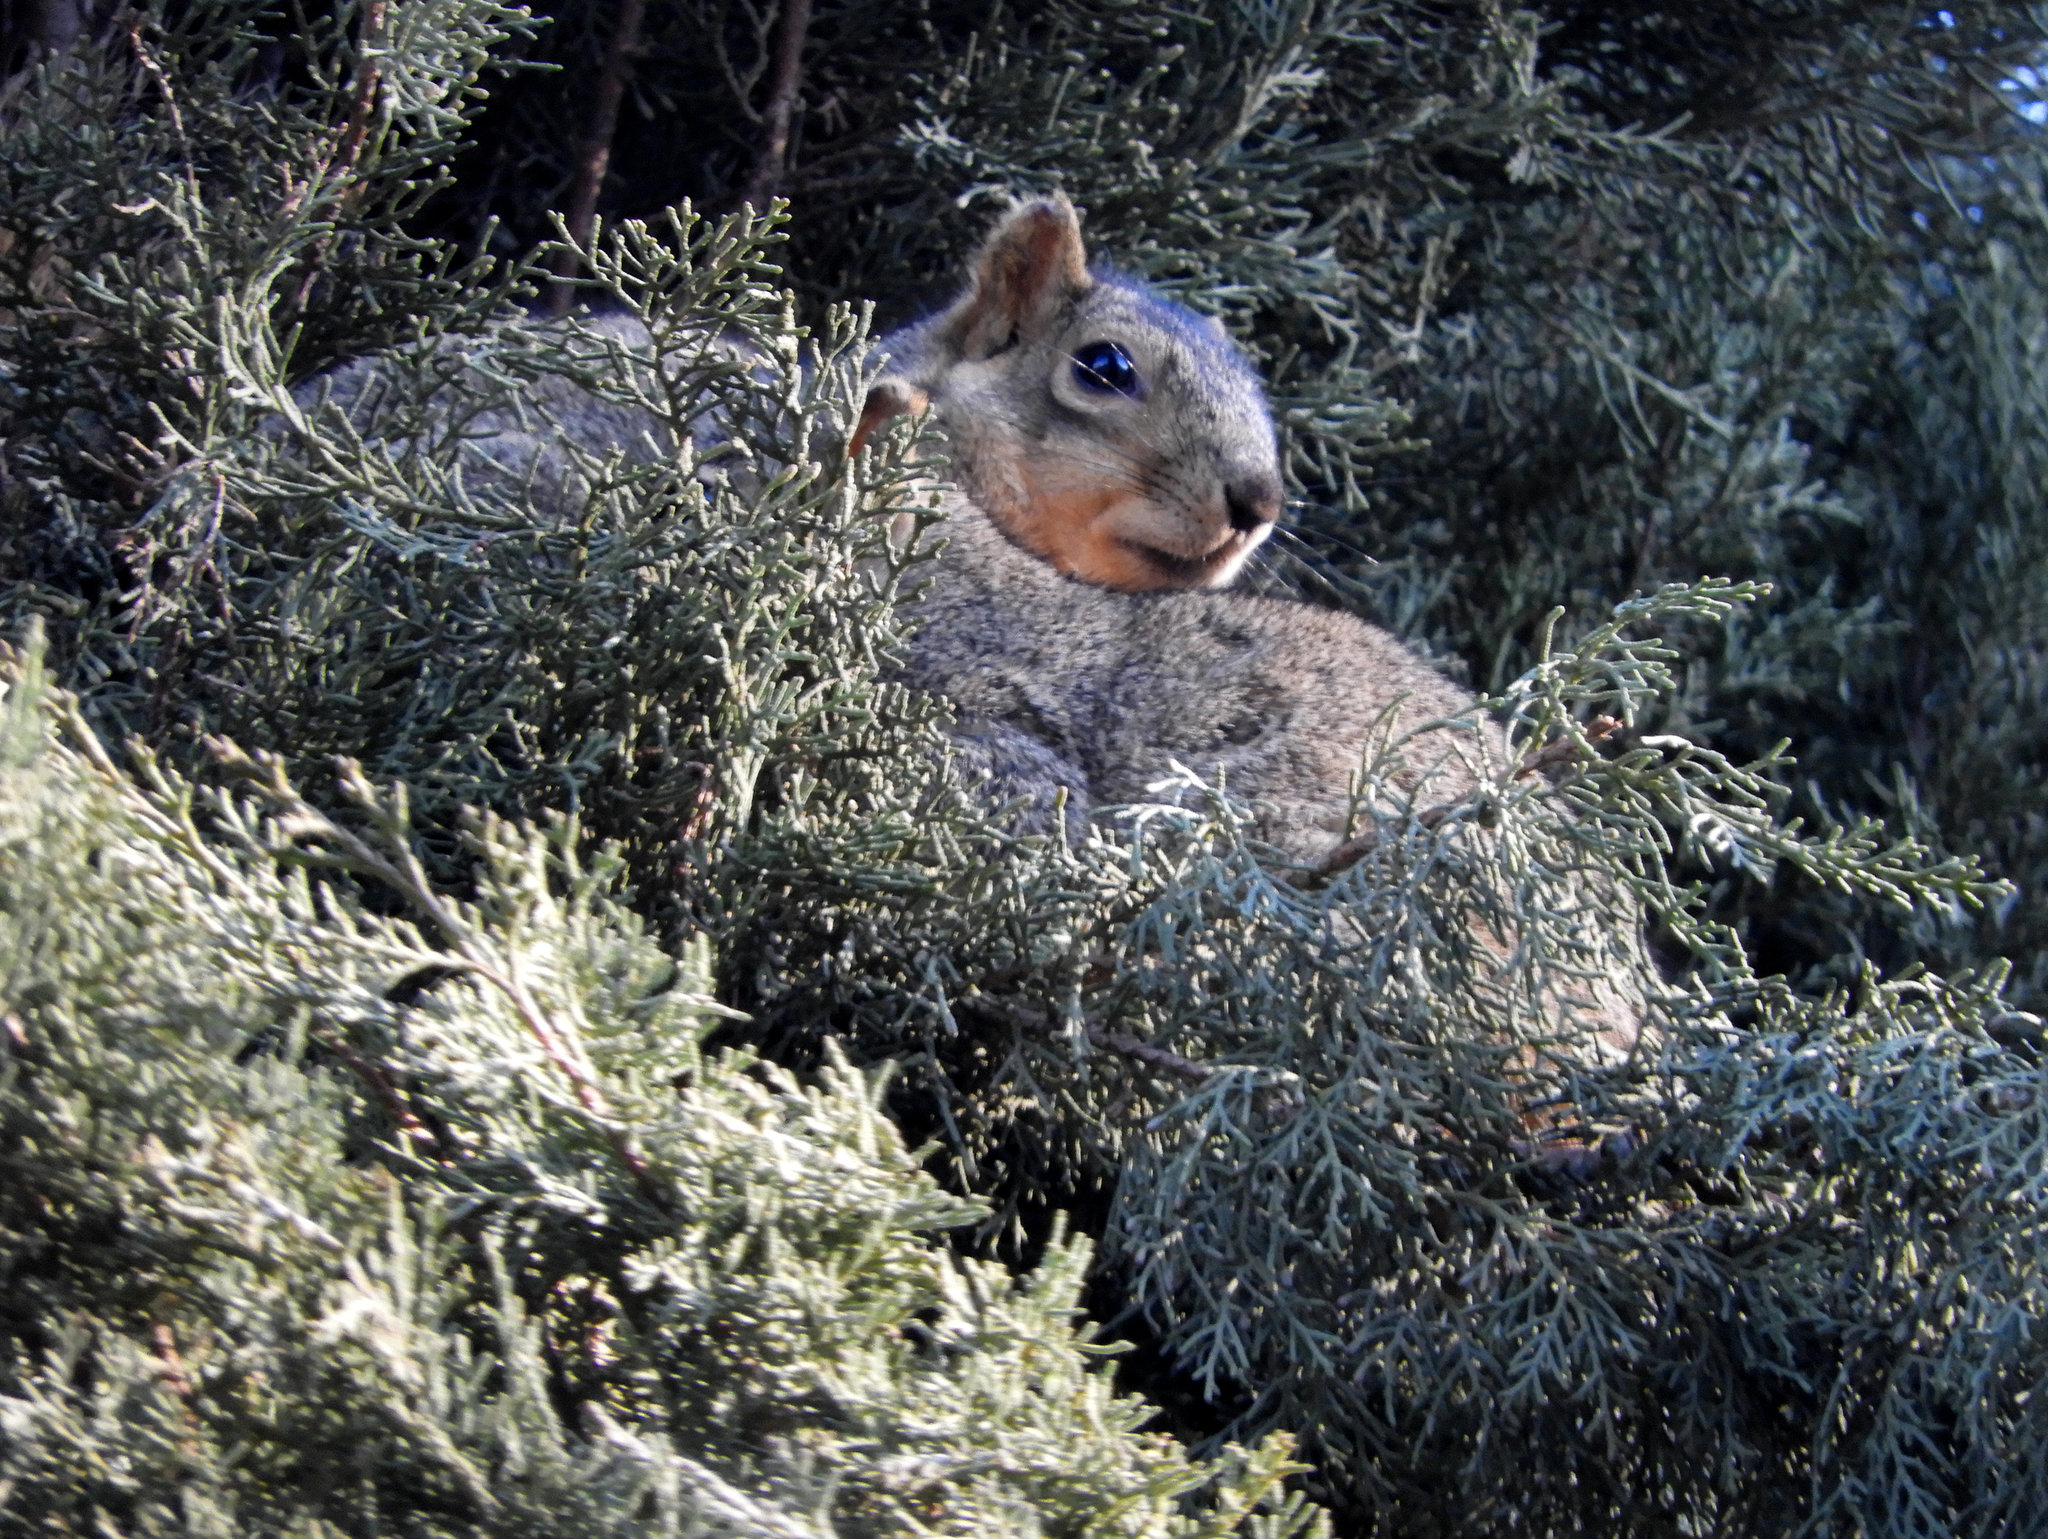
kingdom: Animalia
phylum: Chordata
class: Mammalia
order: Rodentia
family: Sciuridae
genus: Sciurus
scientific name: Sciurus niger
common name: Fox squirrel
